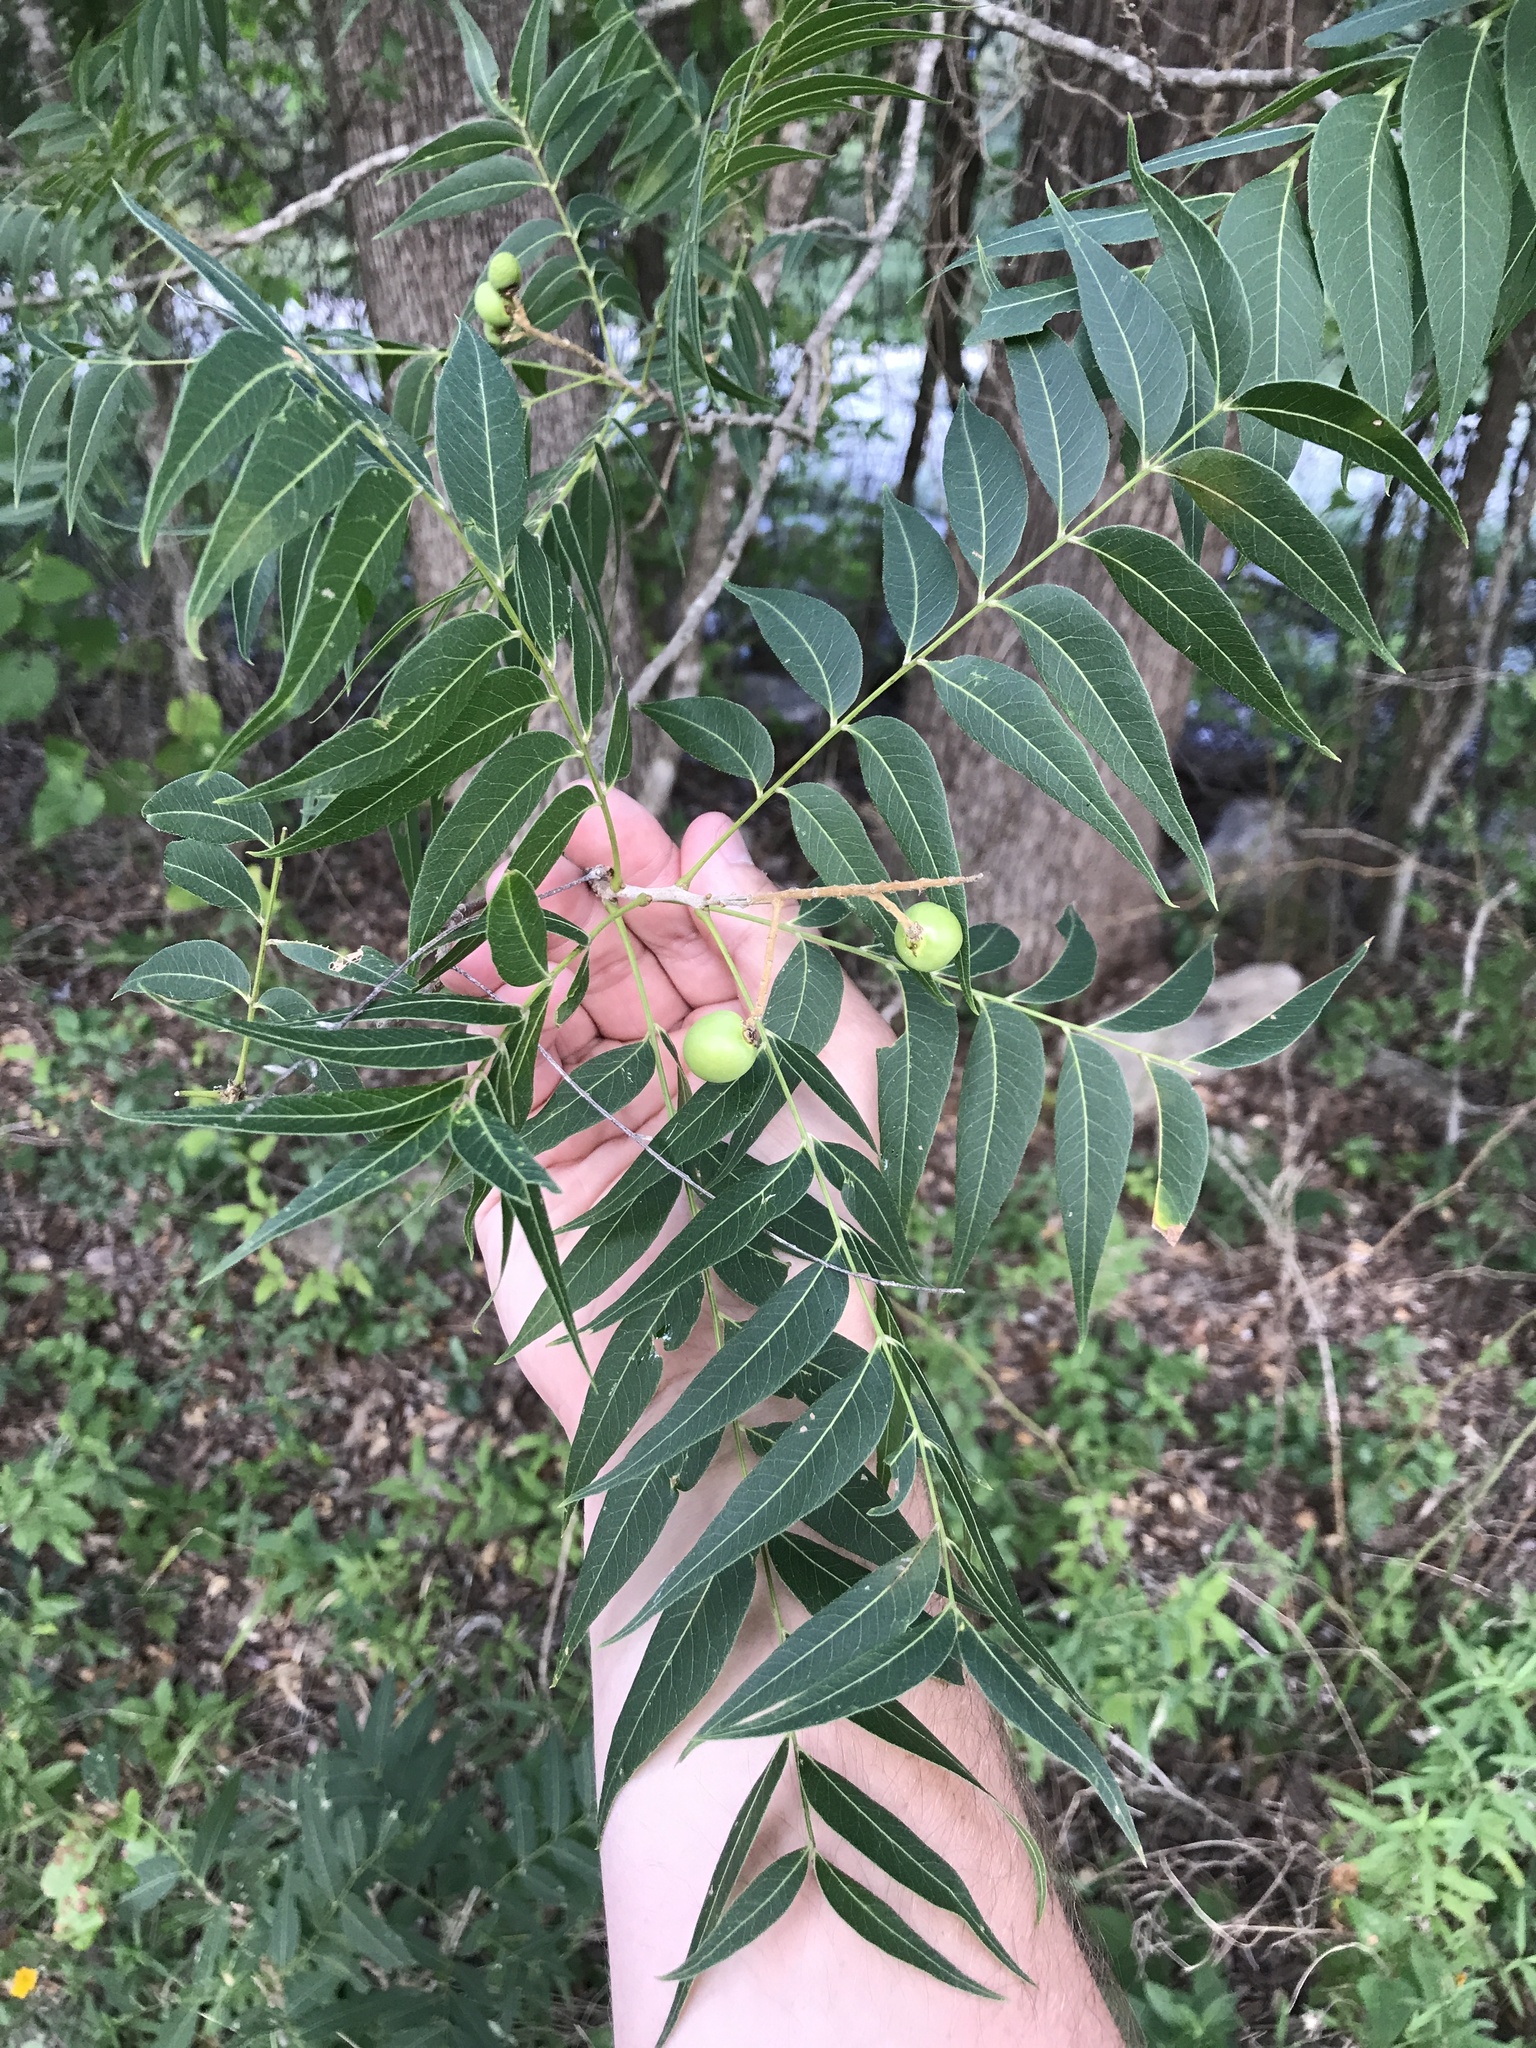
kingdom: Plantae
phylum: Tracheophyta
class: Magnoliopsida
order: Sapindales
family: Sapindaceae
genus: Sapindus
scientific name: Sapindus drummondii
